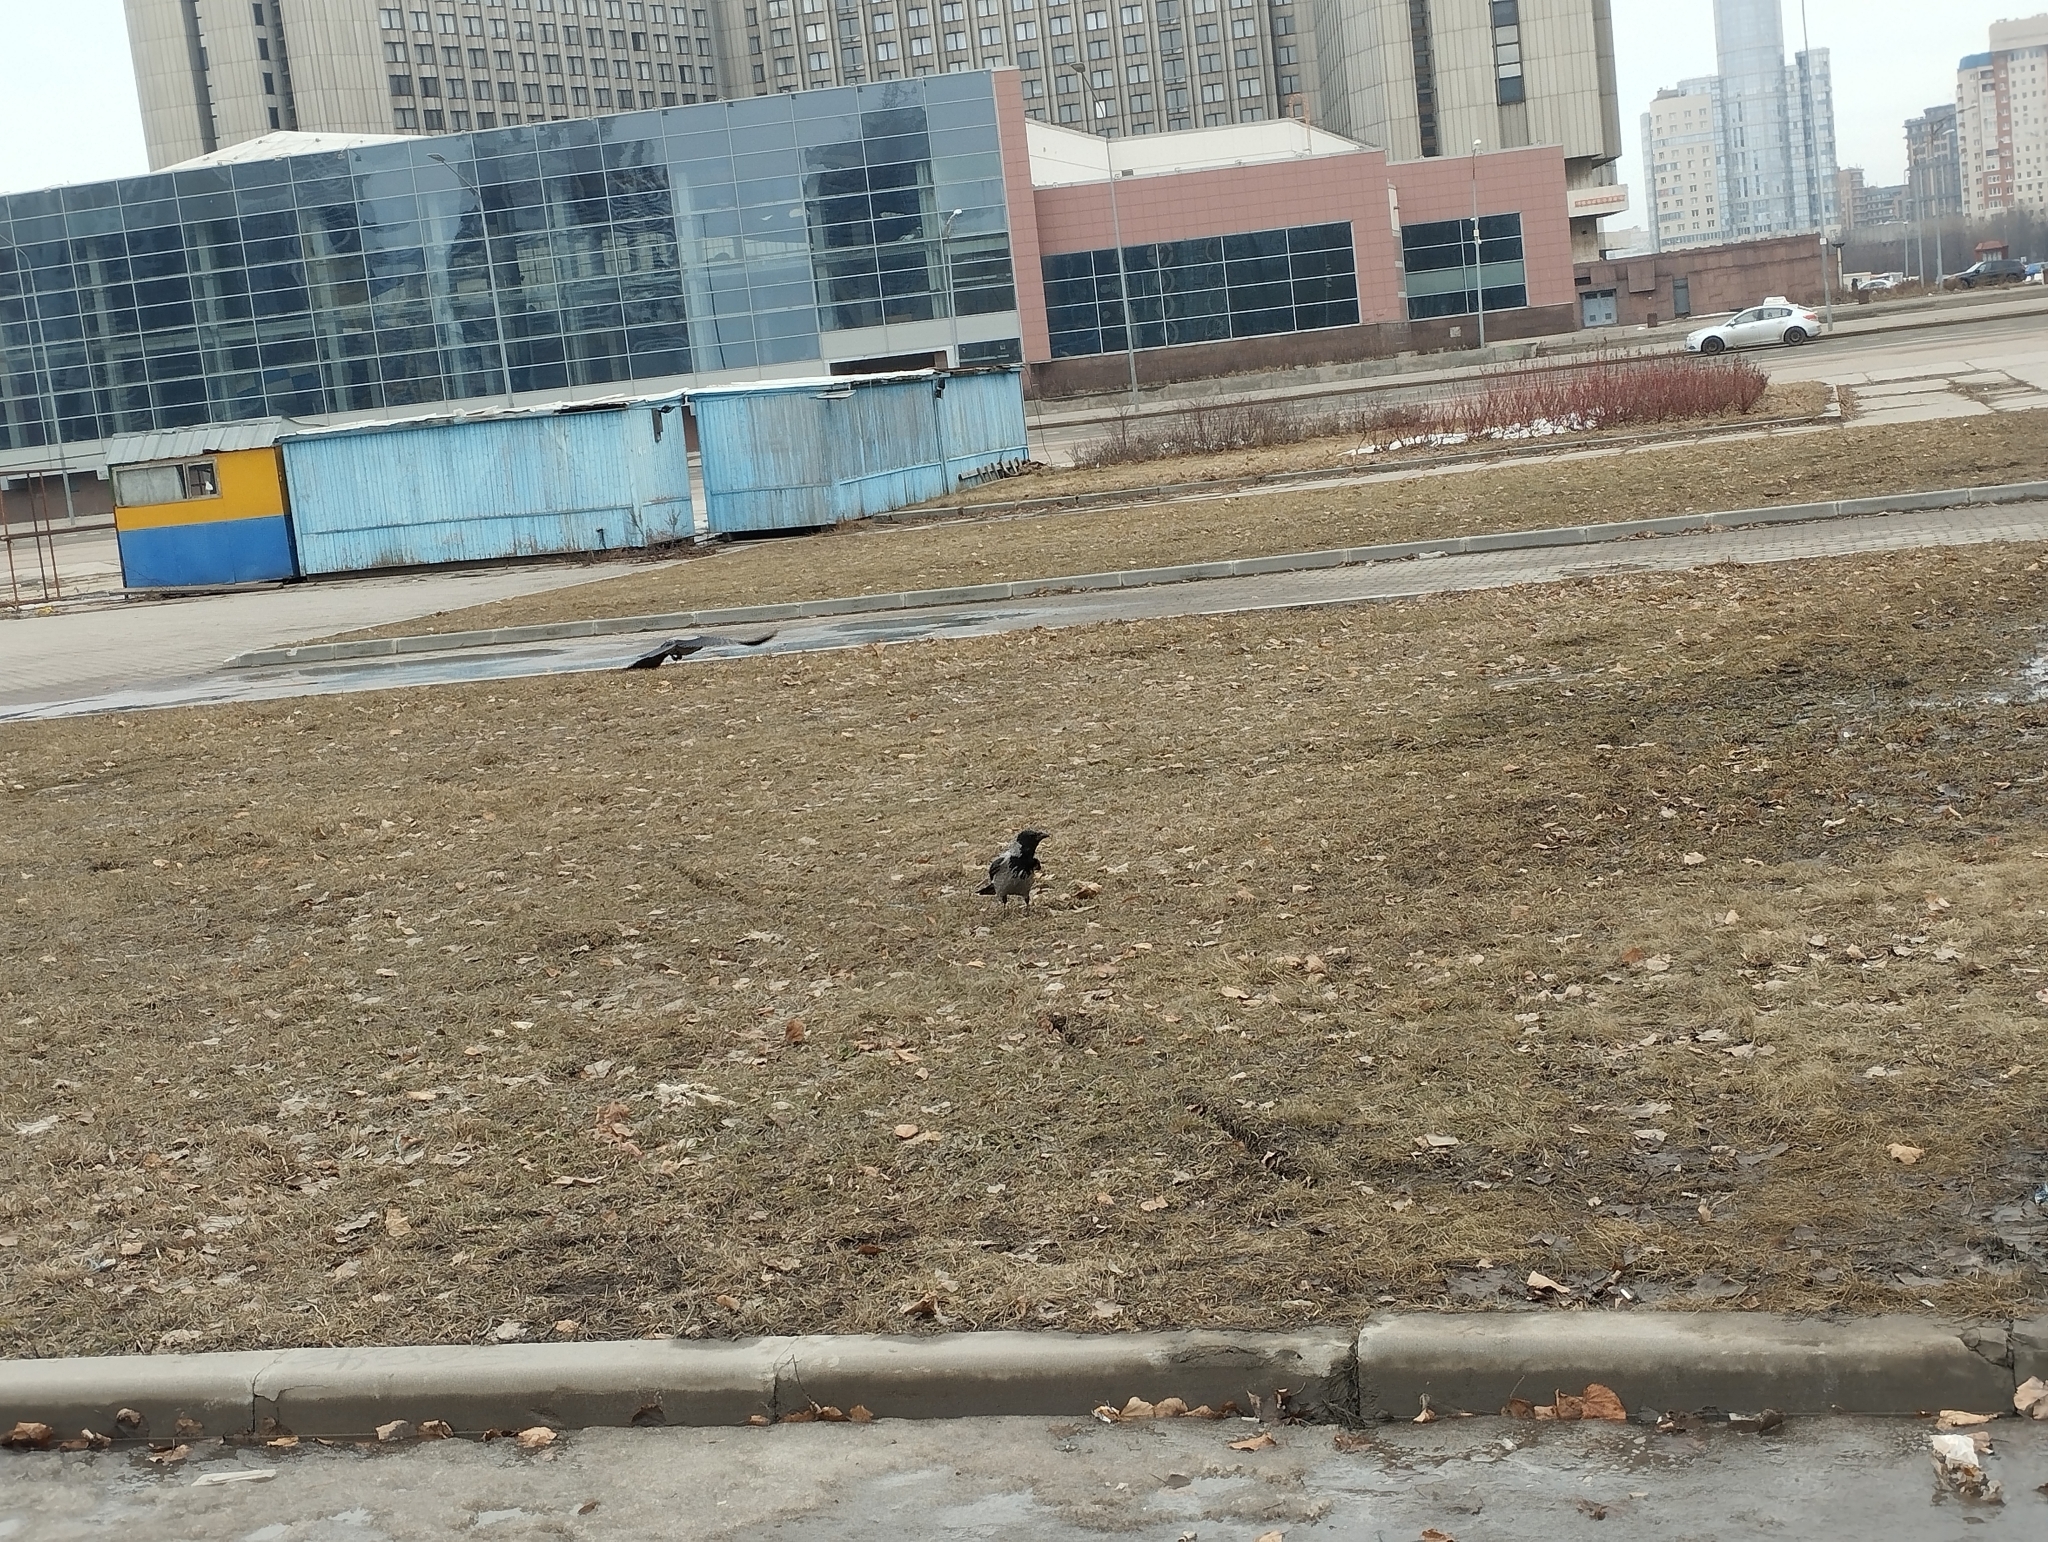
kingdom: Animalia
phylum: Chordata
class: Aves
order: Passeriformes
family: Corvidae
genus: Corvus
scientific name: Corvus cornix
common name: Hooded crow
